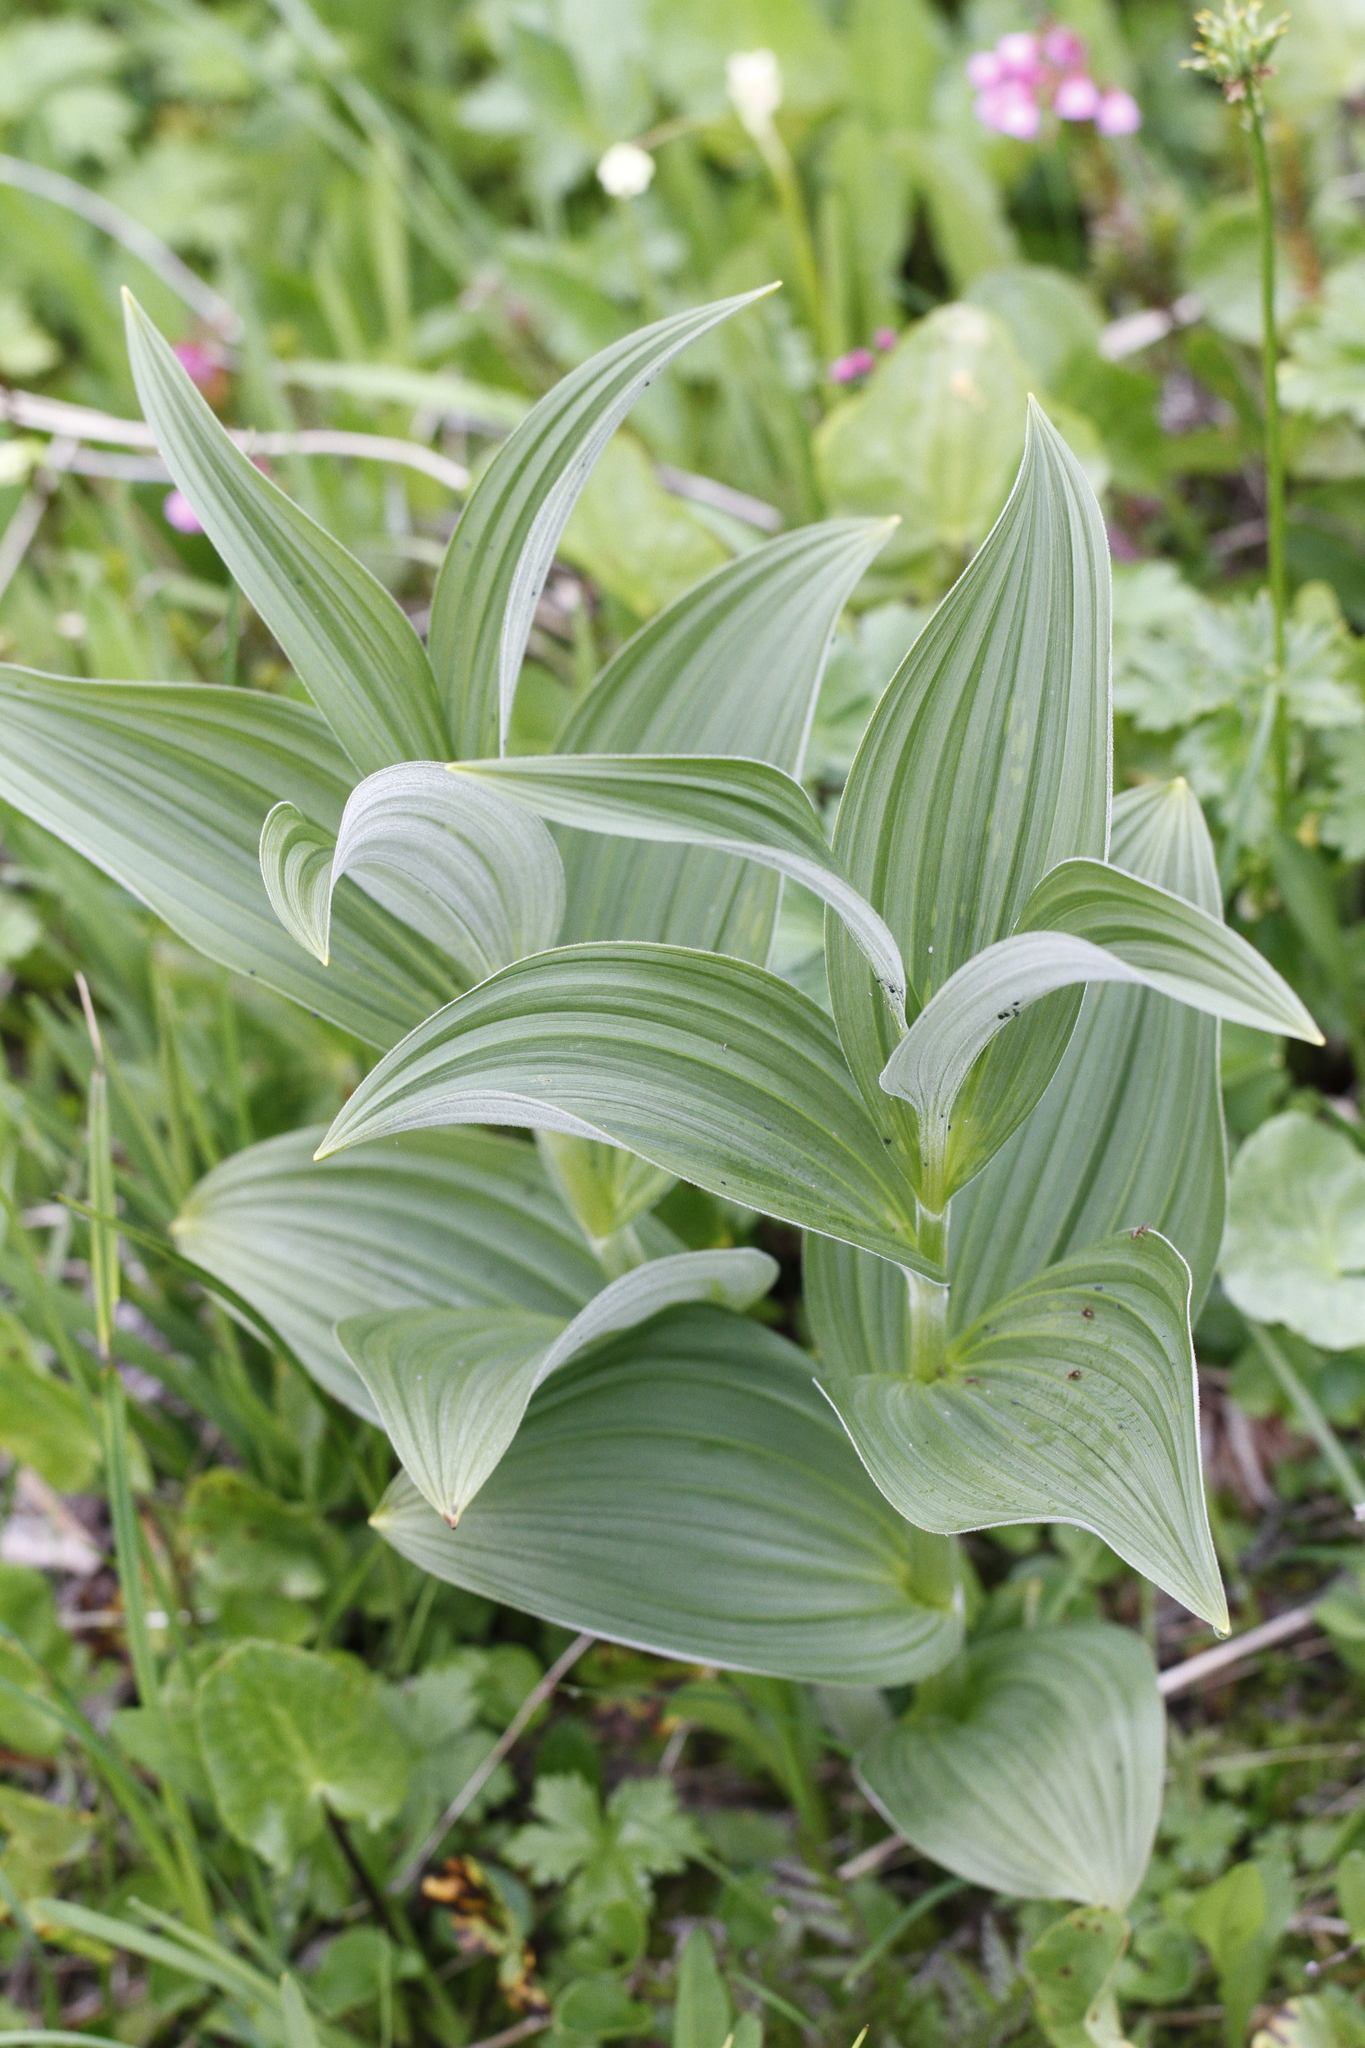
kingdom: Plantae
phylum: Tracheophyta
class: Liliopsida
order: Liliales
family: Melanthiaceae
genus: Veratrum
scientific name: Veratrum viride
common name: American false hellebore
